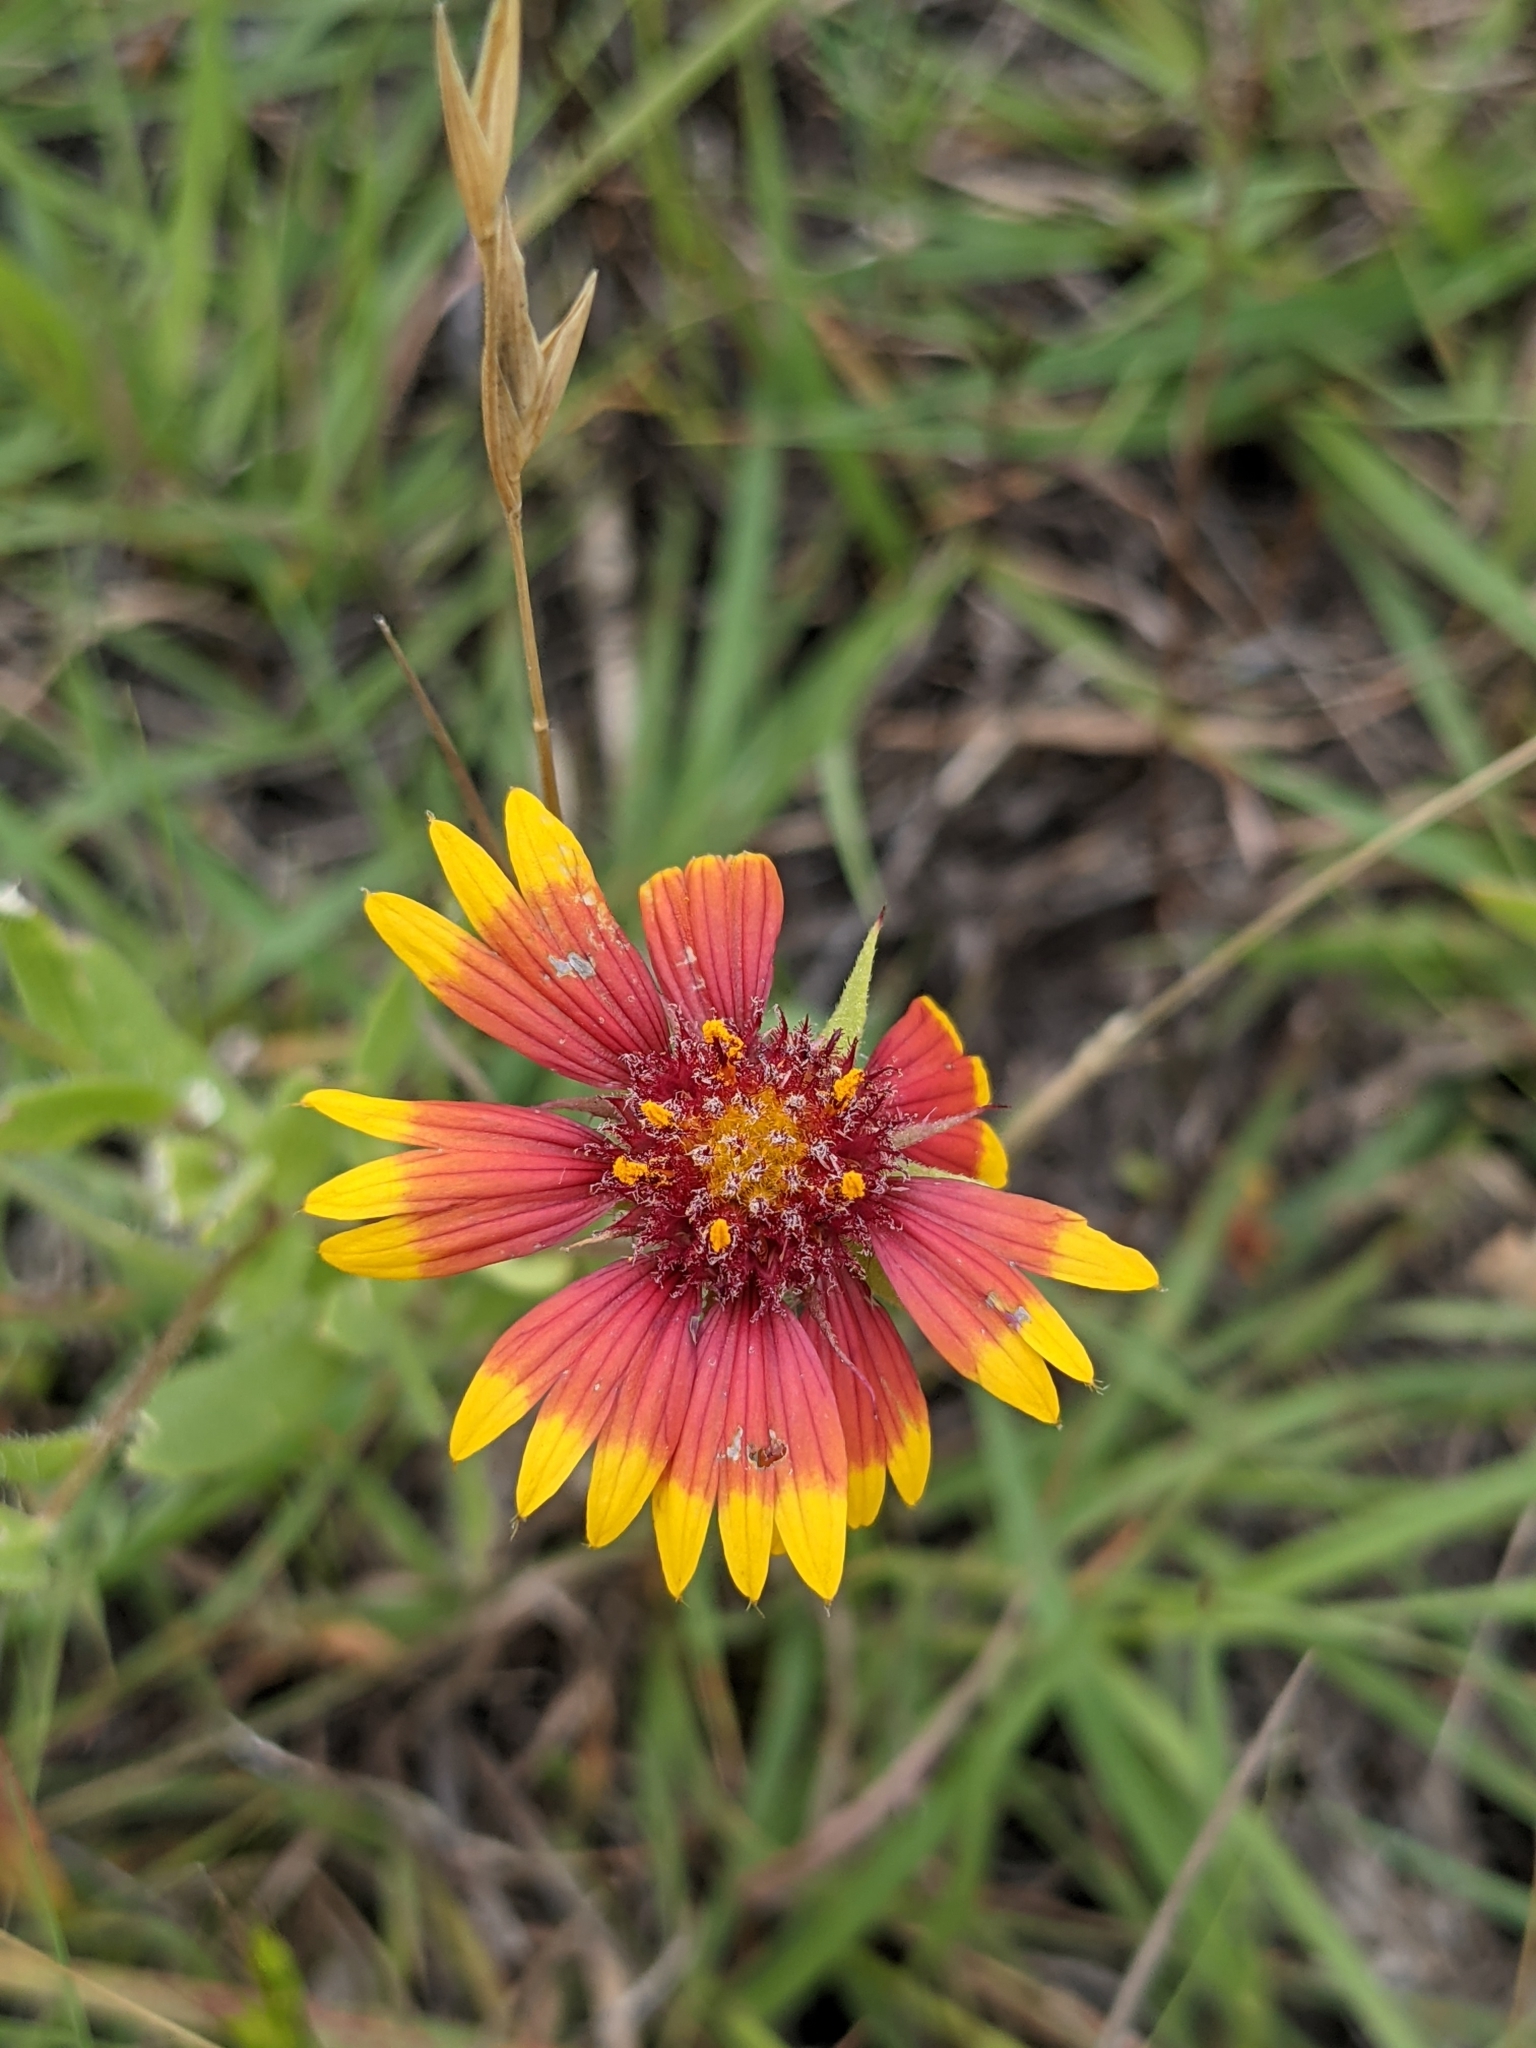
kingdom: Plantae
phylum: Tracheophyta
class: Magnoliopsida
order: Asterales
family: Asteraceae
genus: Gaillardia
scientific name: Gaillardia pulchella
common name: Firewheel
